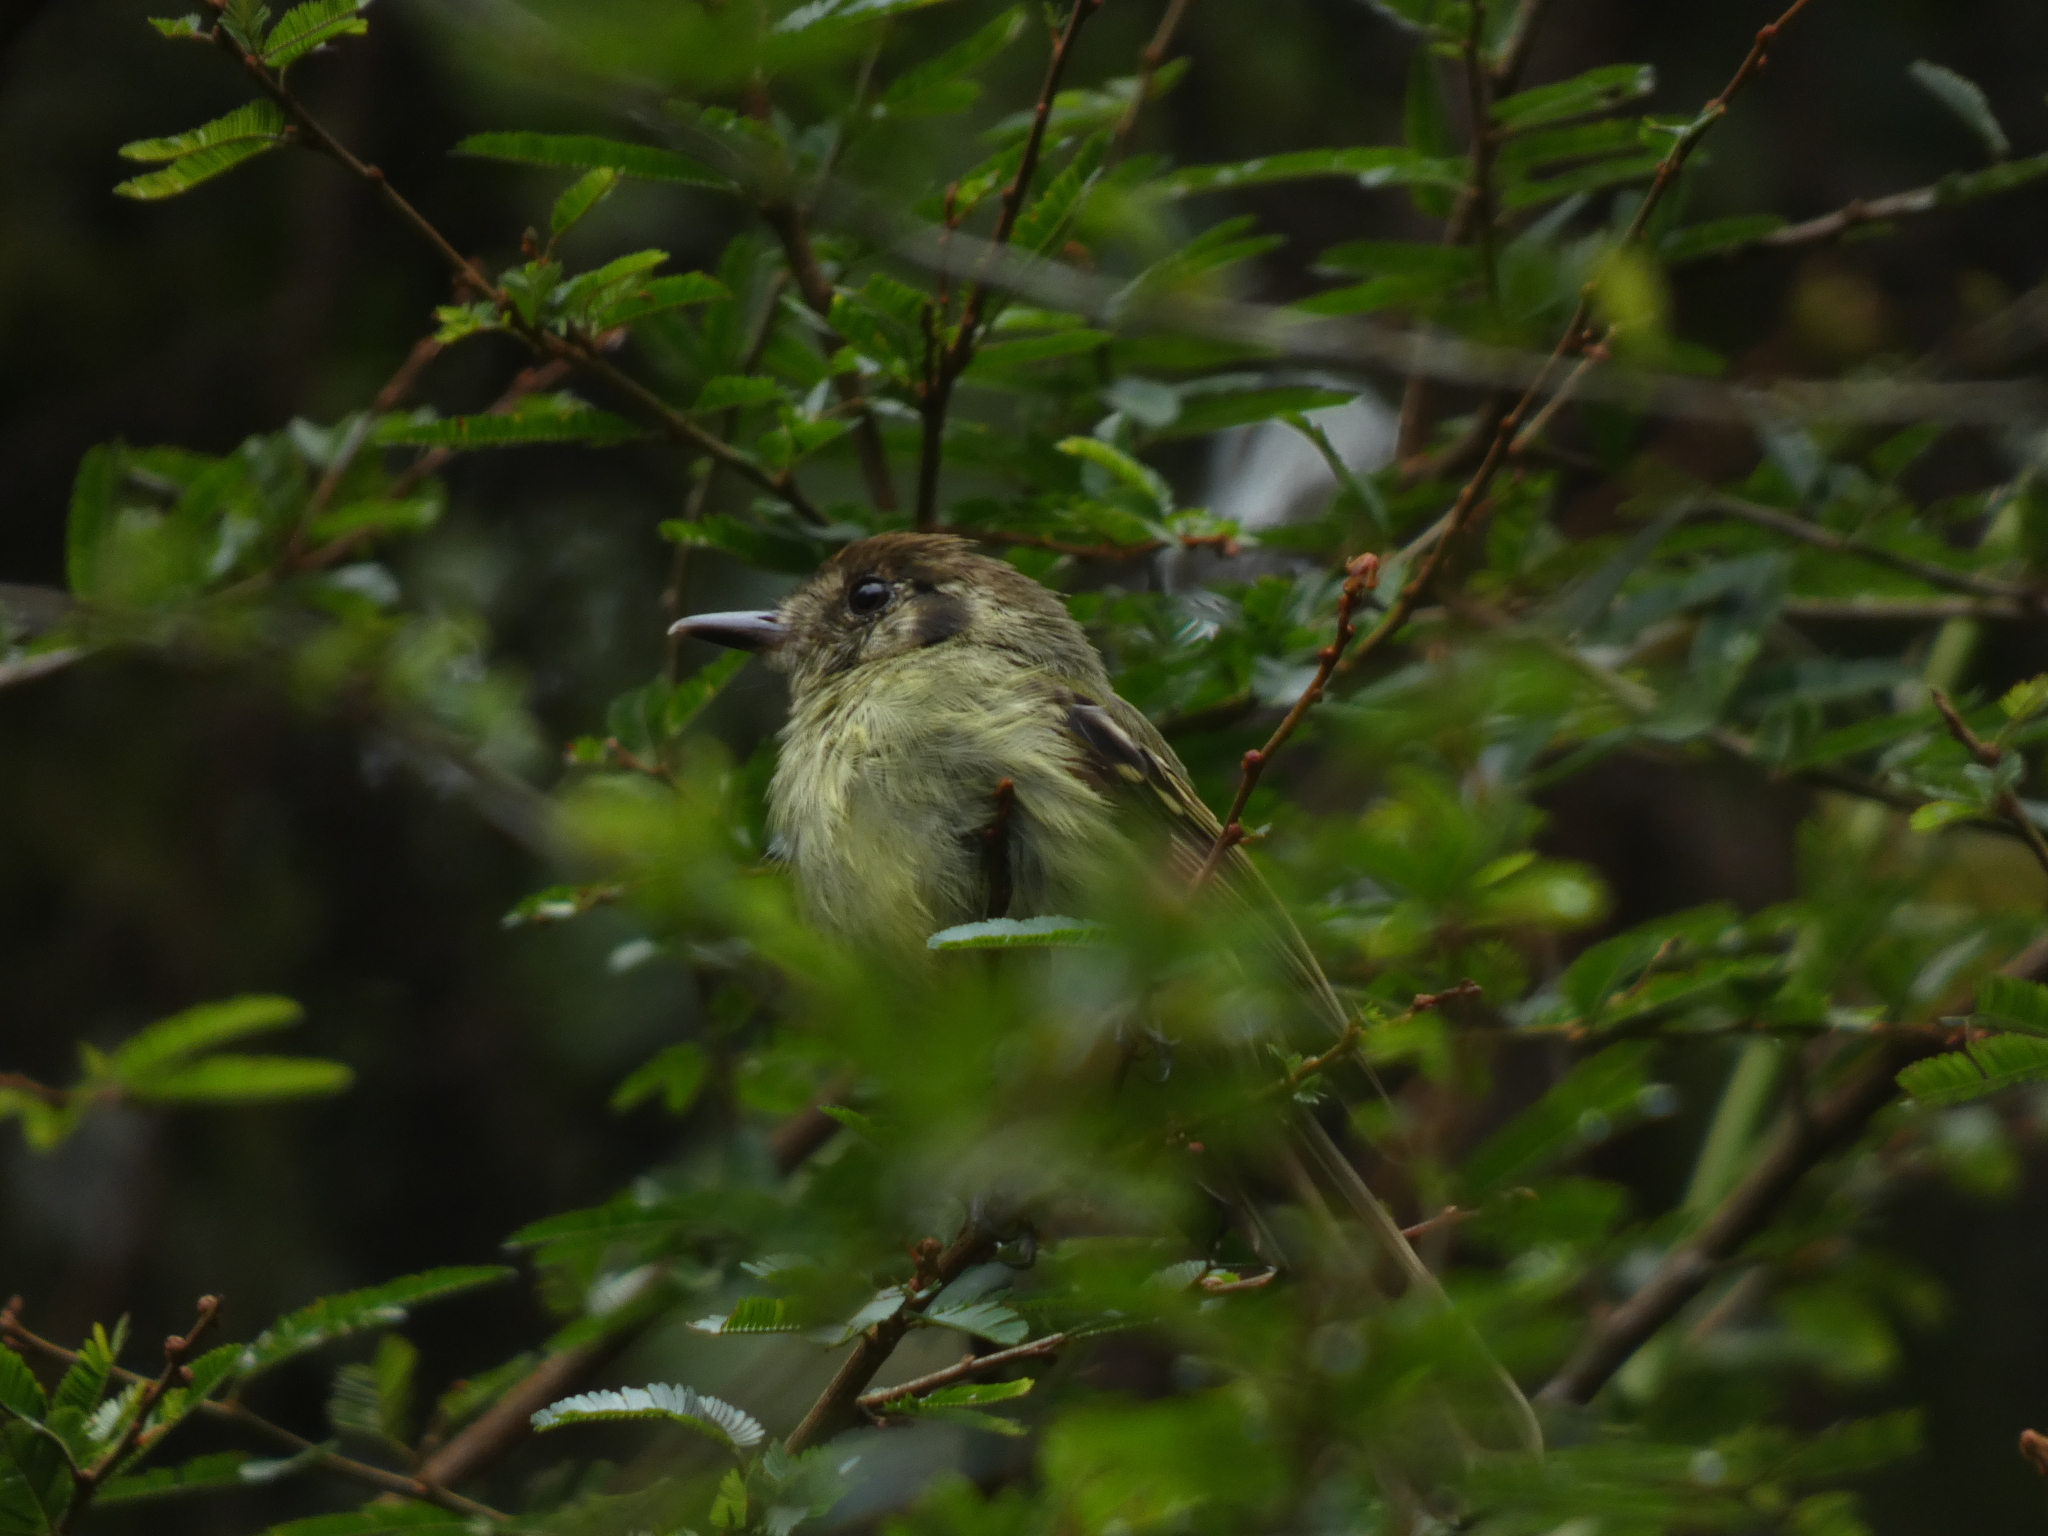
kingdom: Animalia
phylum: Chordata
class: Aves
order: Passeriformes
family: Tyrannidae
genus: Leptopogon
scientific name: Leptopogon amaurocephalus
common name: Sepia-capped flycatcher
